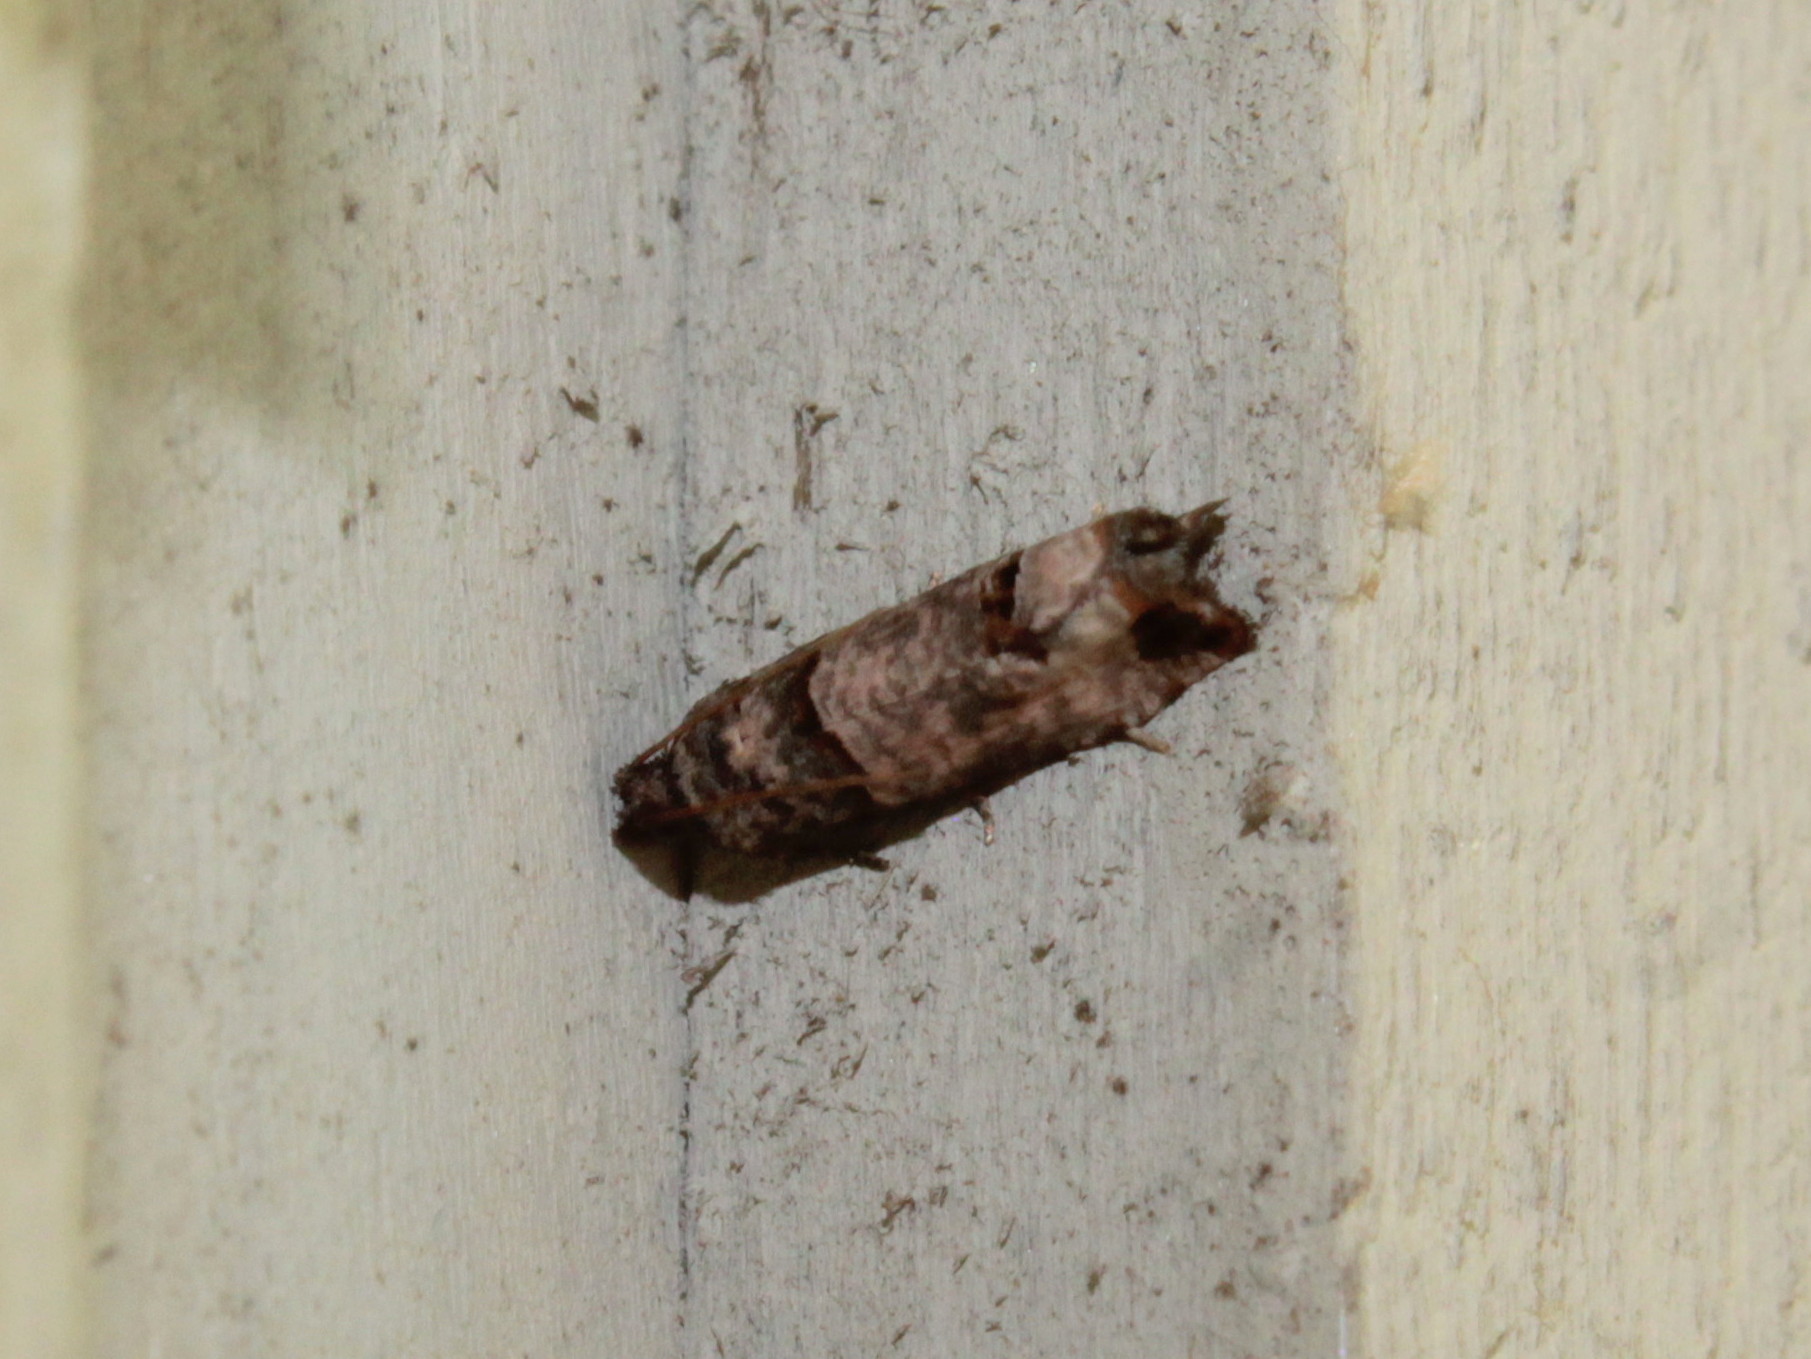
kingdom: Animalia
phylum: Arthropoda
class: Insecta
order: Lepidoptera
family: Tortricidae
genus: Notocelia
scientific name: Notocelia culminana
